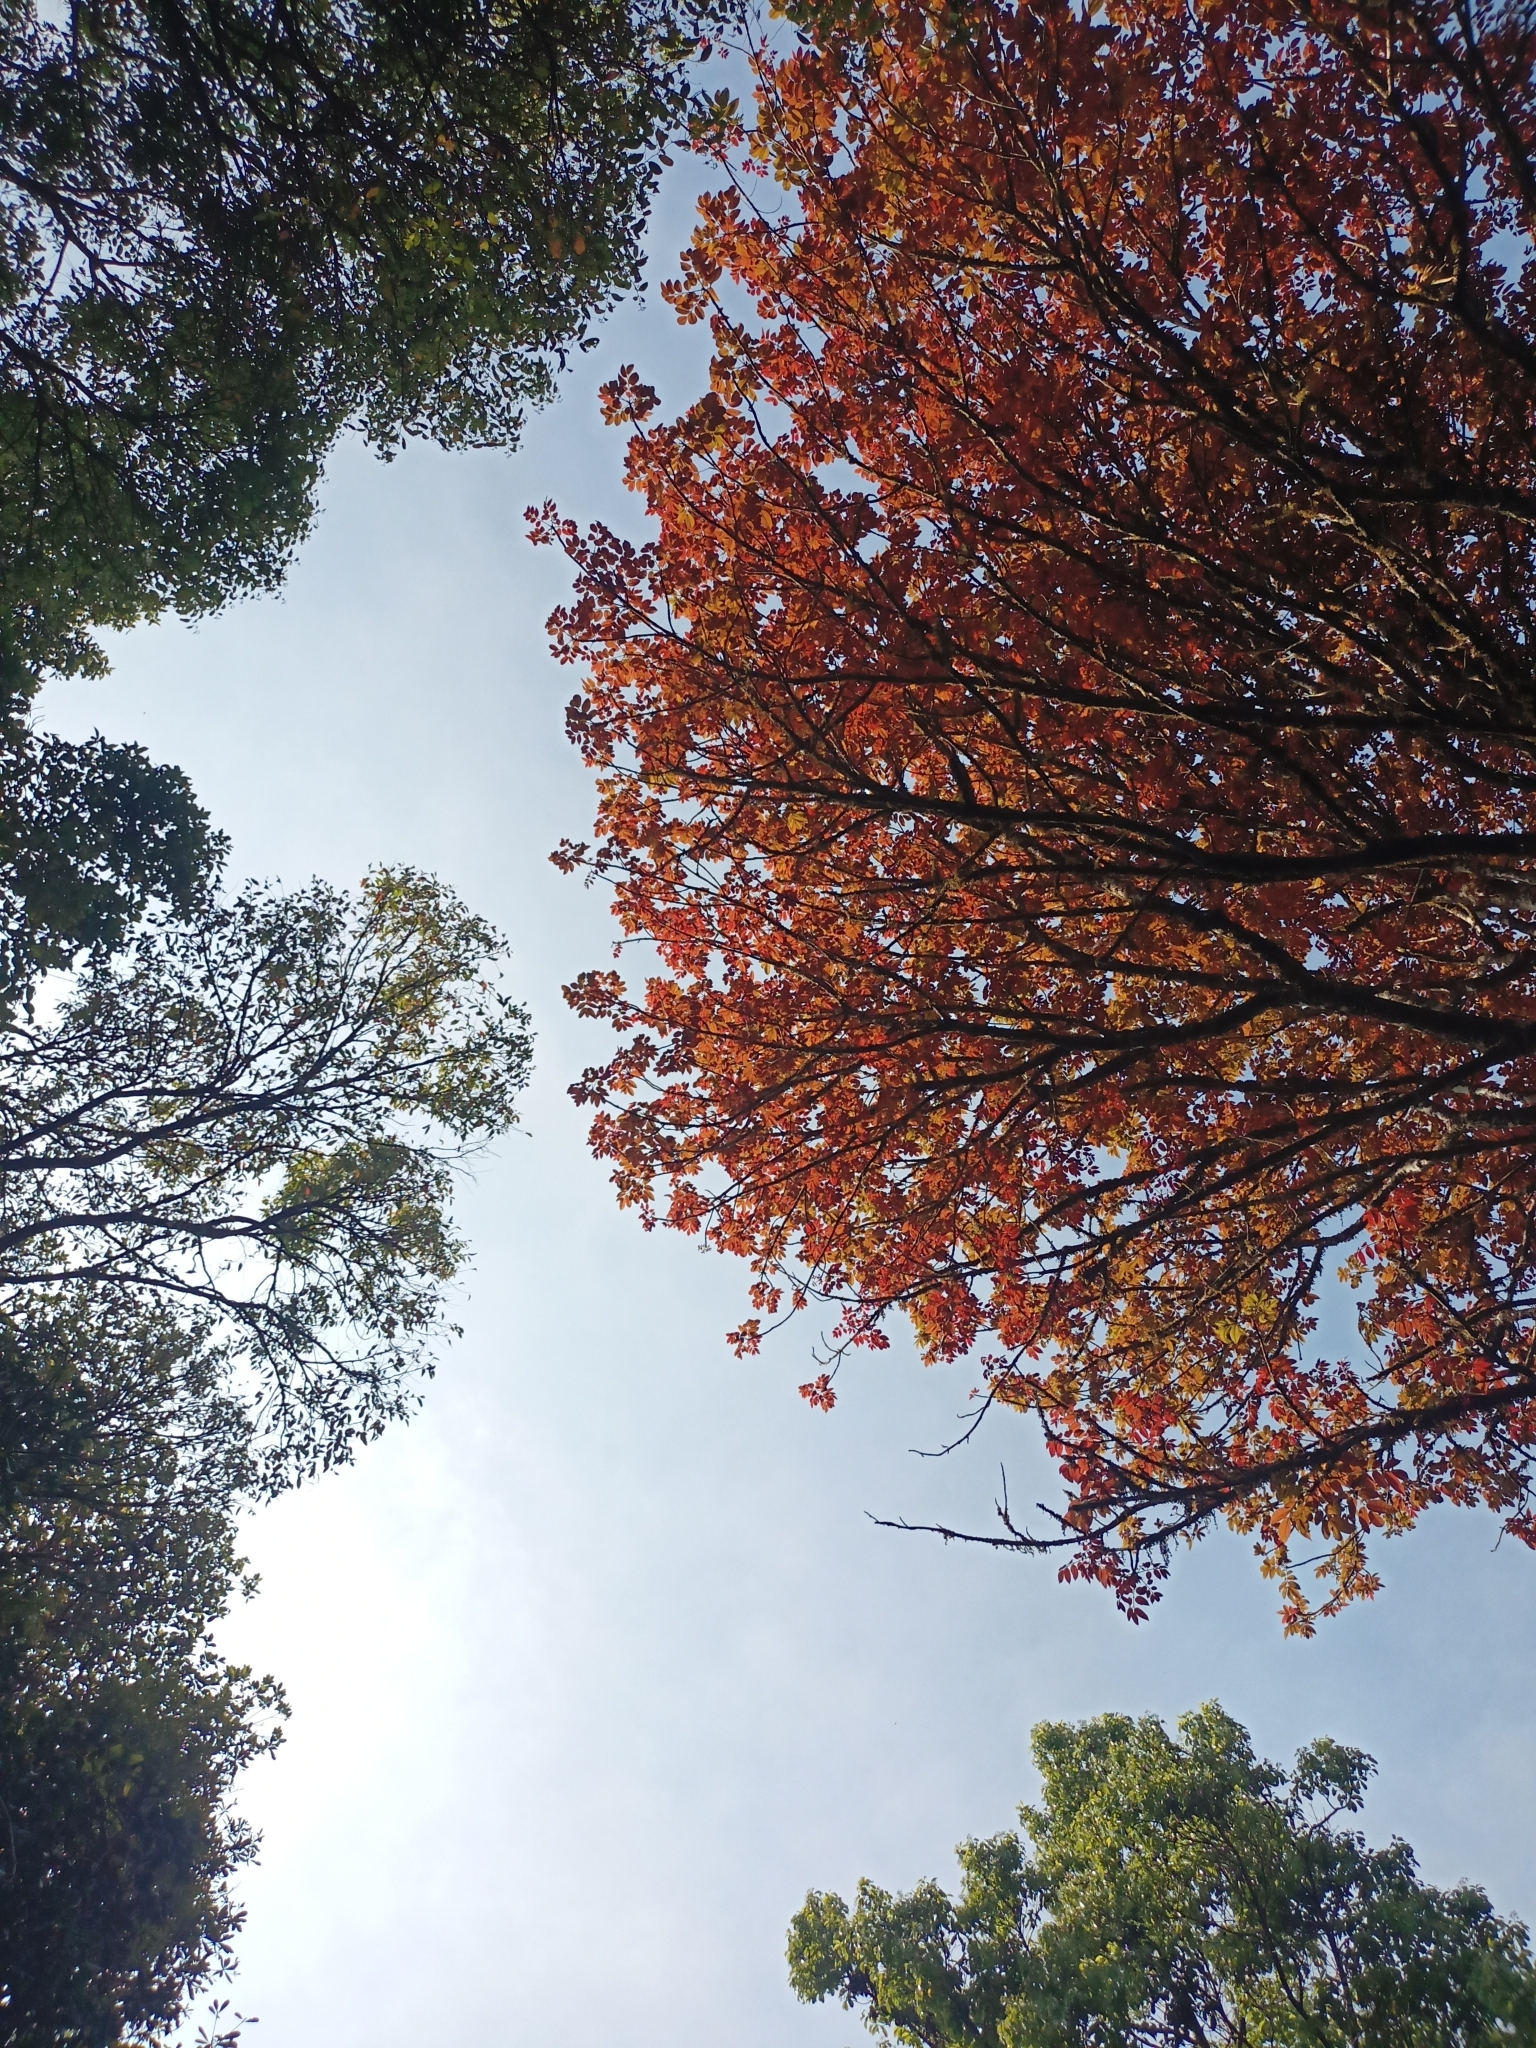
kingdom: Plantae
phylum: Tracheophyta
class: Magnoliopsida
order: Sapindales
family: Burseraceae
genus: Canarium
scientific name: Canarium strictum
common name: Indian white-mahogany
